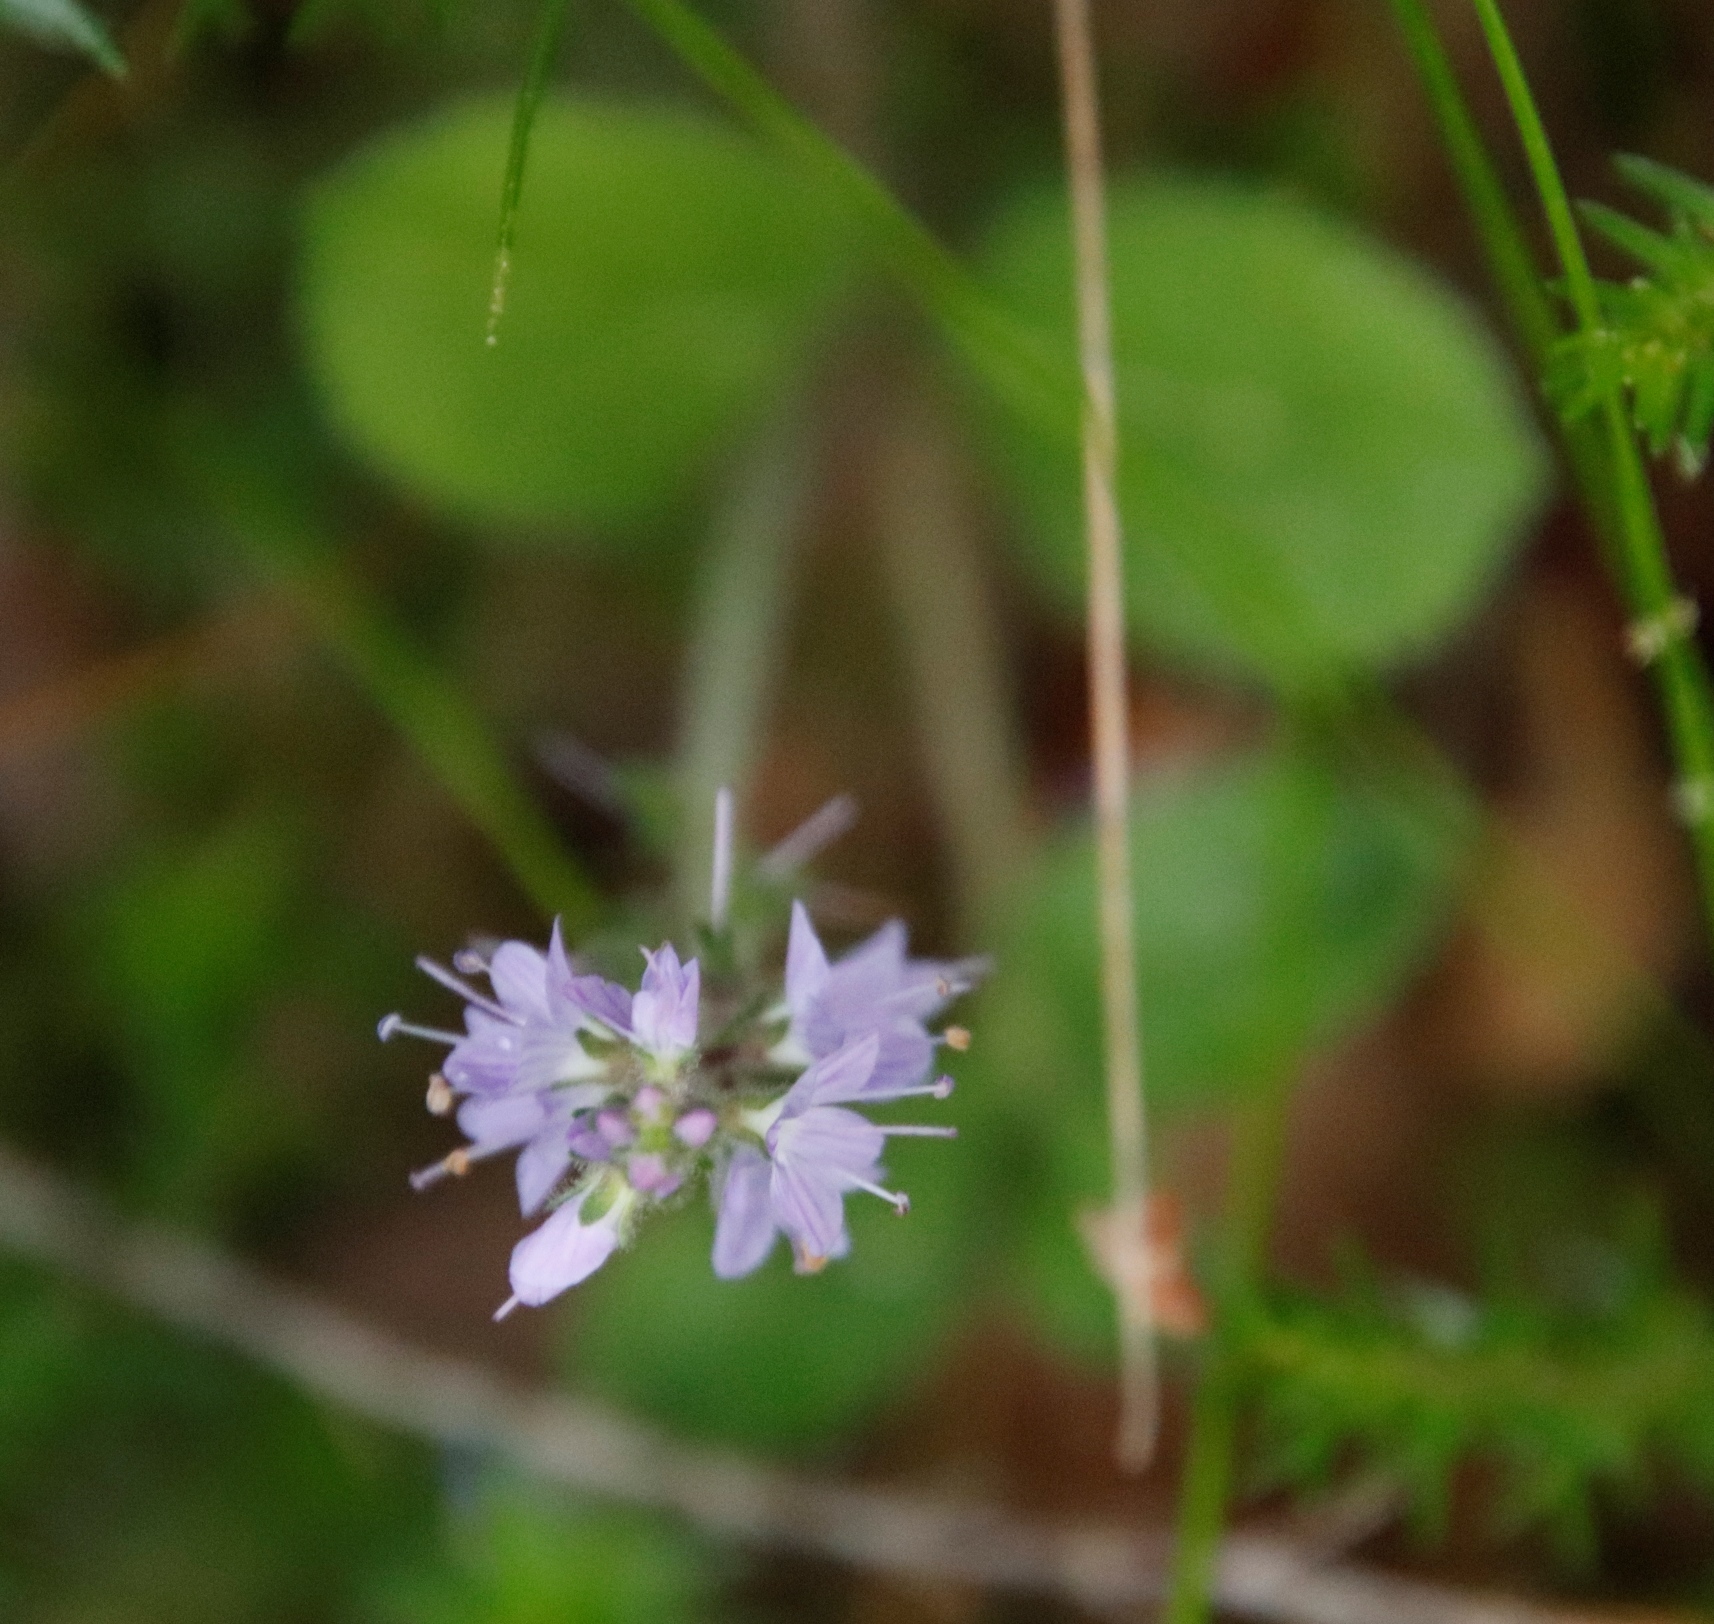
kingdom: Plantae
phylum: Tracheophyta
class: Magnoliopsida
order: Lamiales
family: Plantaginaceae
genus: Veronica
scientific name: Veronica officinalis
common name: Common speedwell
